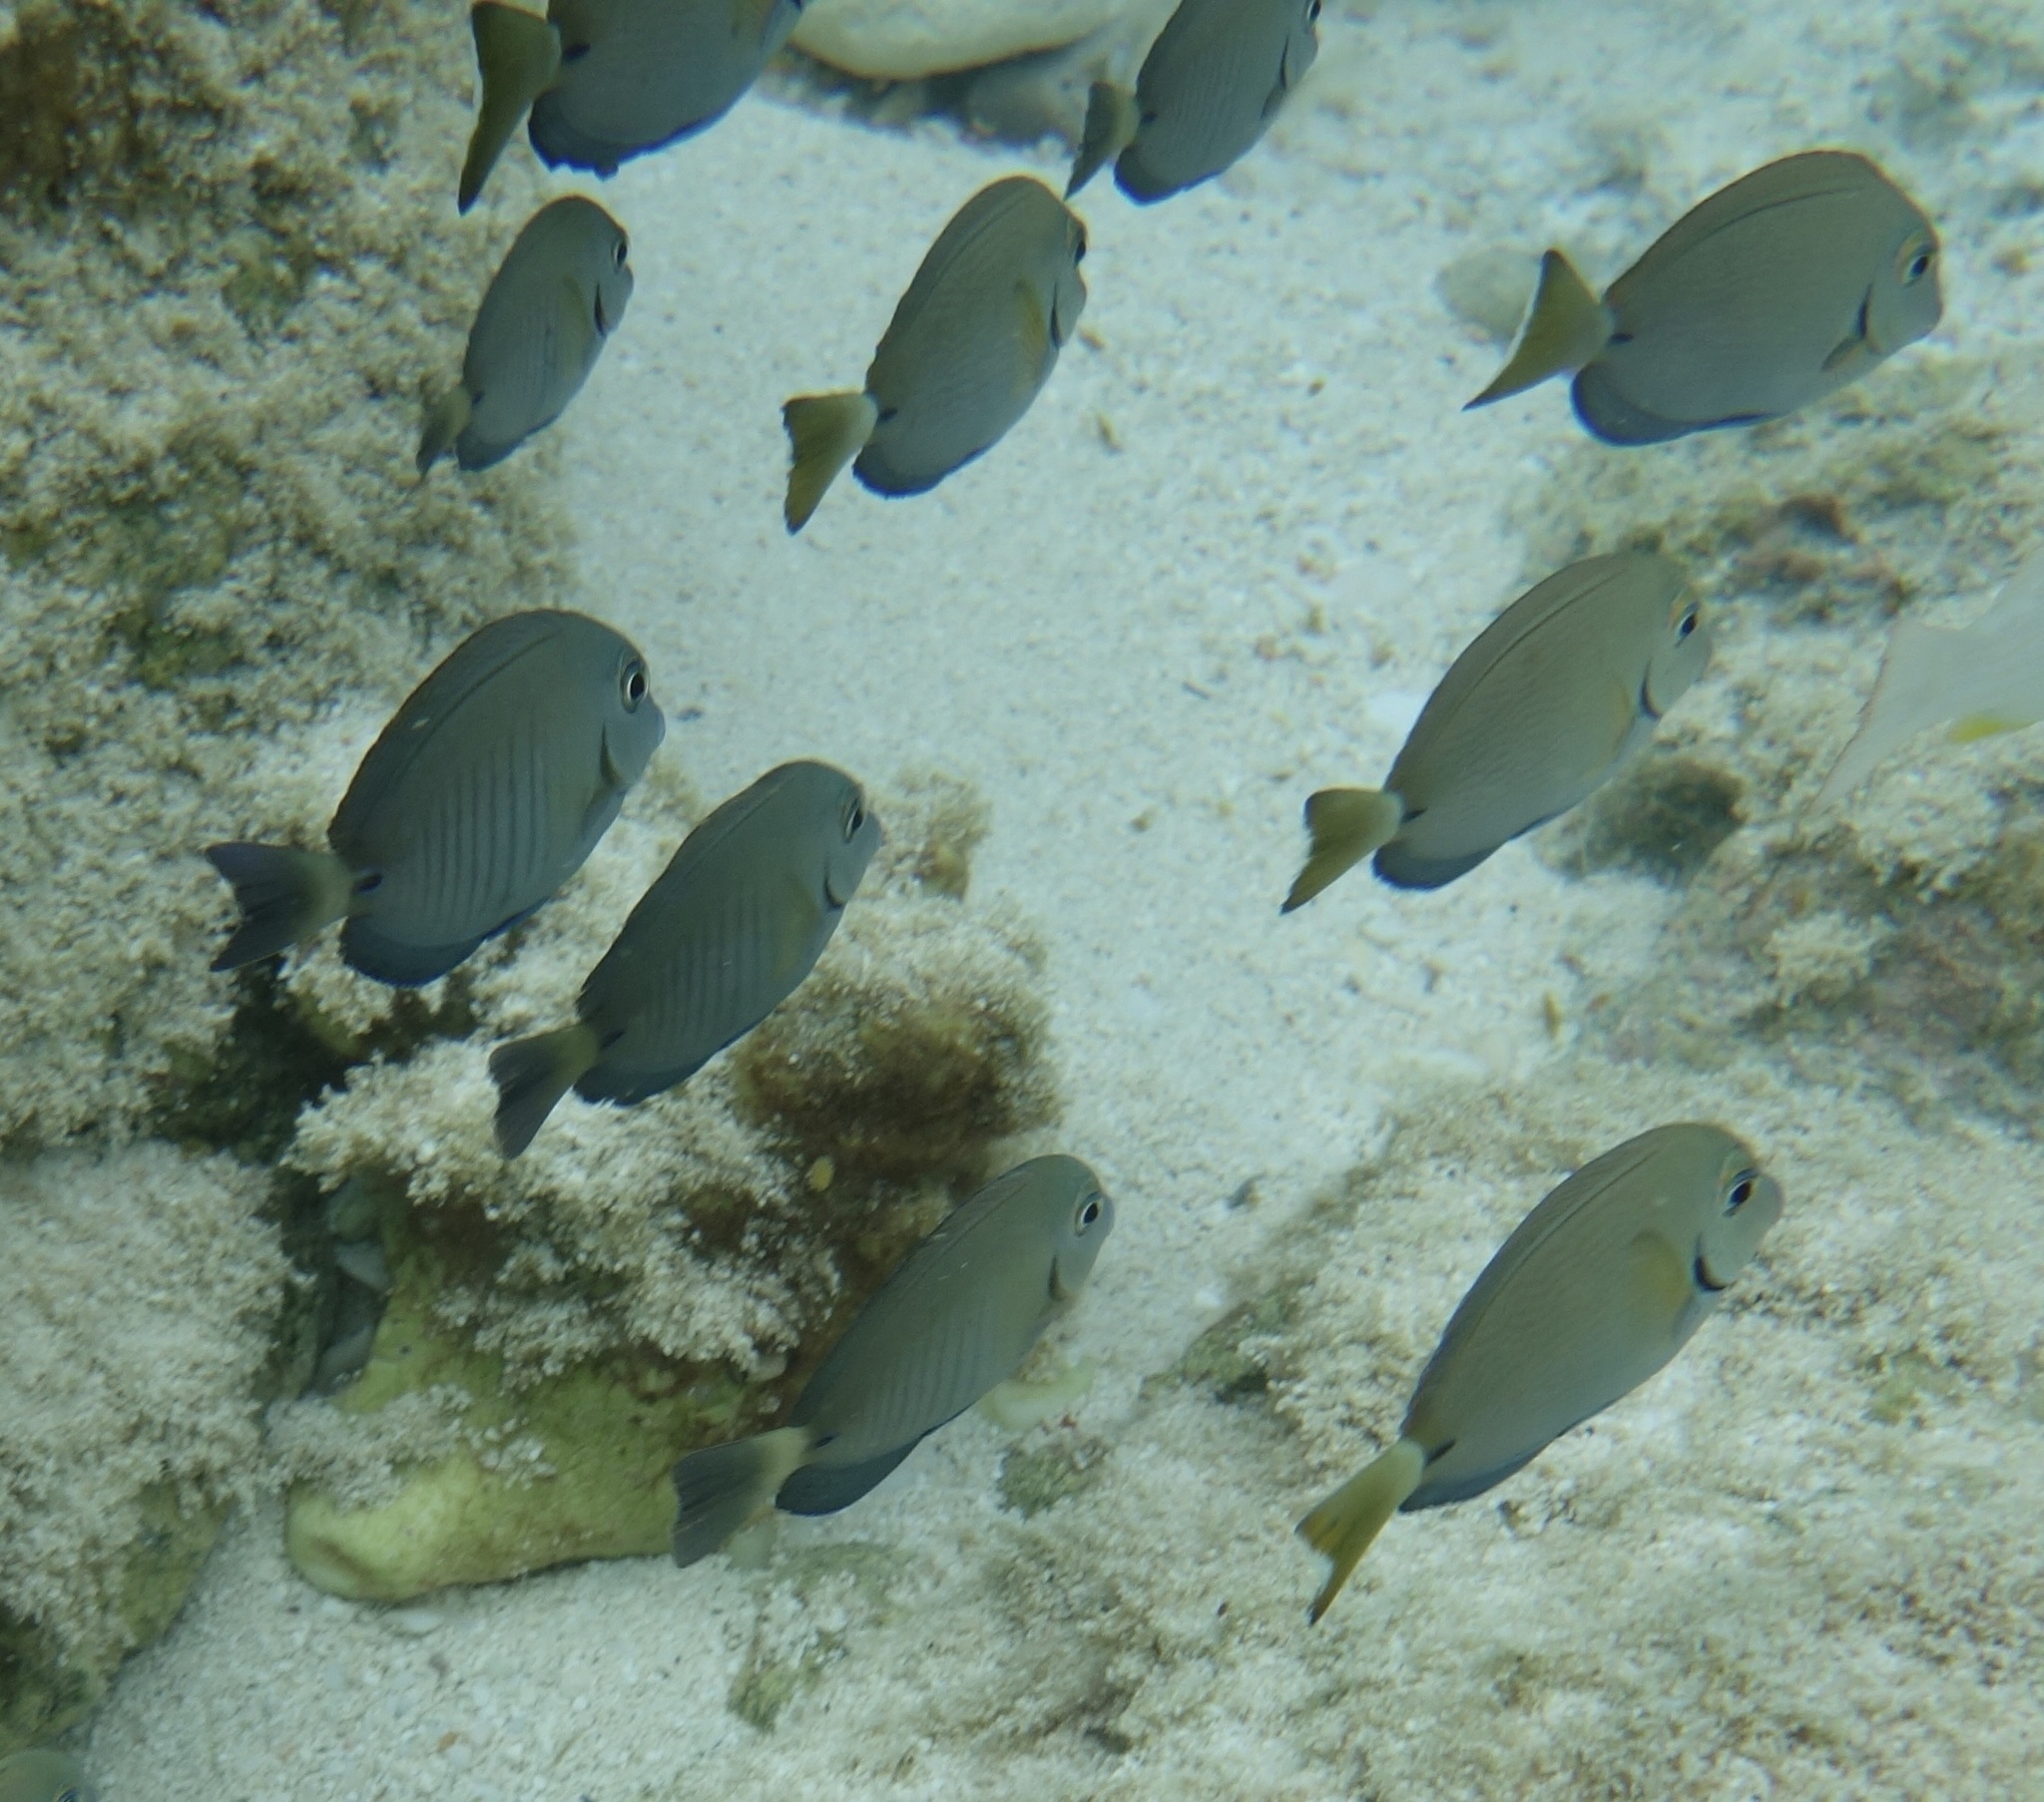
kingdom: Animalia
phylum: Chordata
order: Perciformes
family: Acanthuridae
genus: Acanthurus
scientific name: Acanthurus chirurgus
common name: Doctorfish
